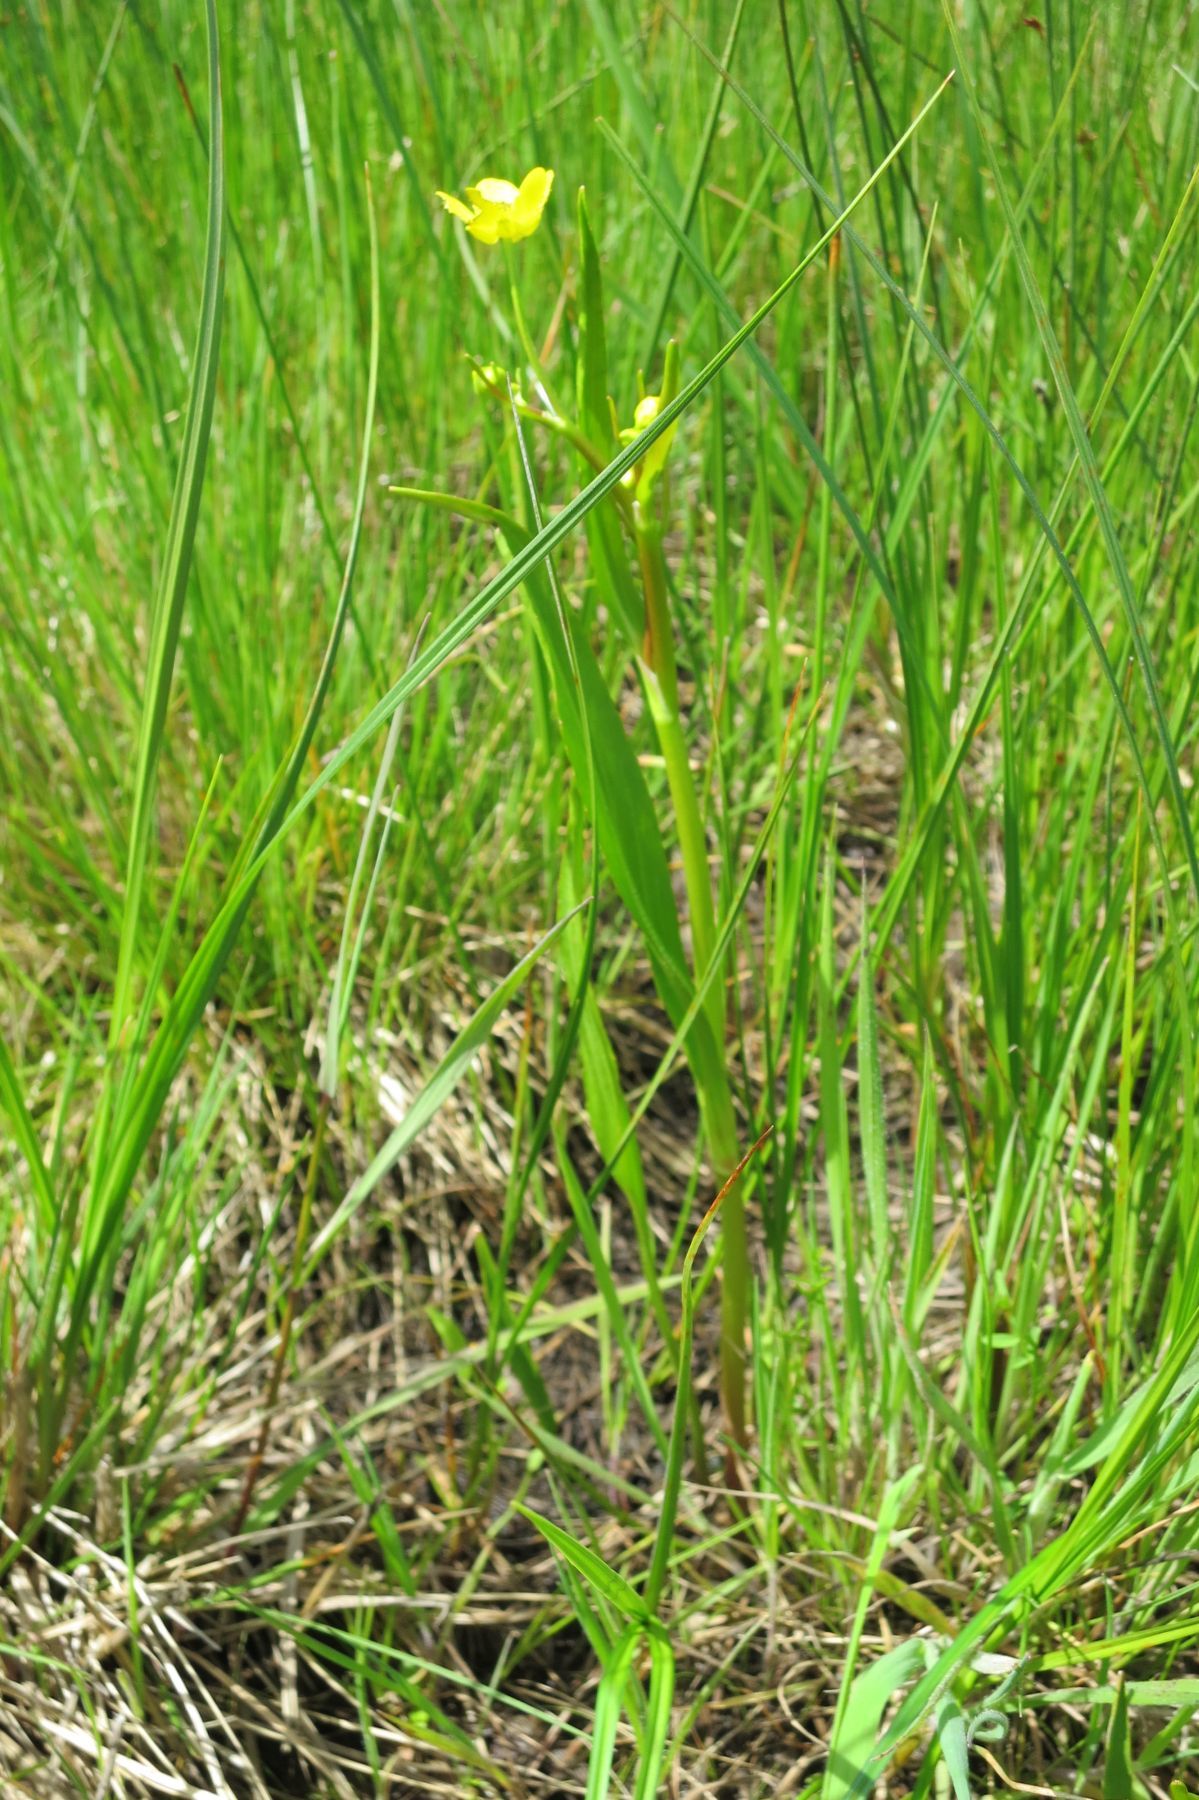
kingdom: Plantae
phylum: Tracheophyta
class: Magnoliopsida
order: Ranunculales
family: Ranunculaceae
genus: Ranunculus
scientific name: Ranunculus alismifolius
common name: Plantain-leaved buttercup
